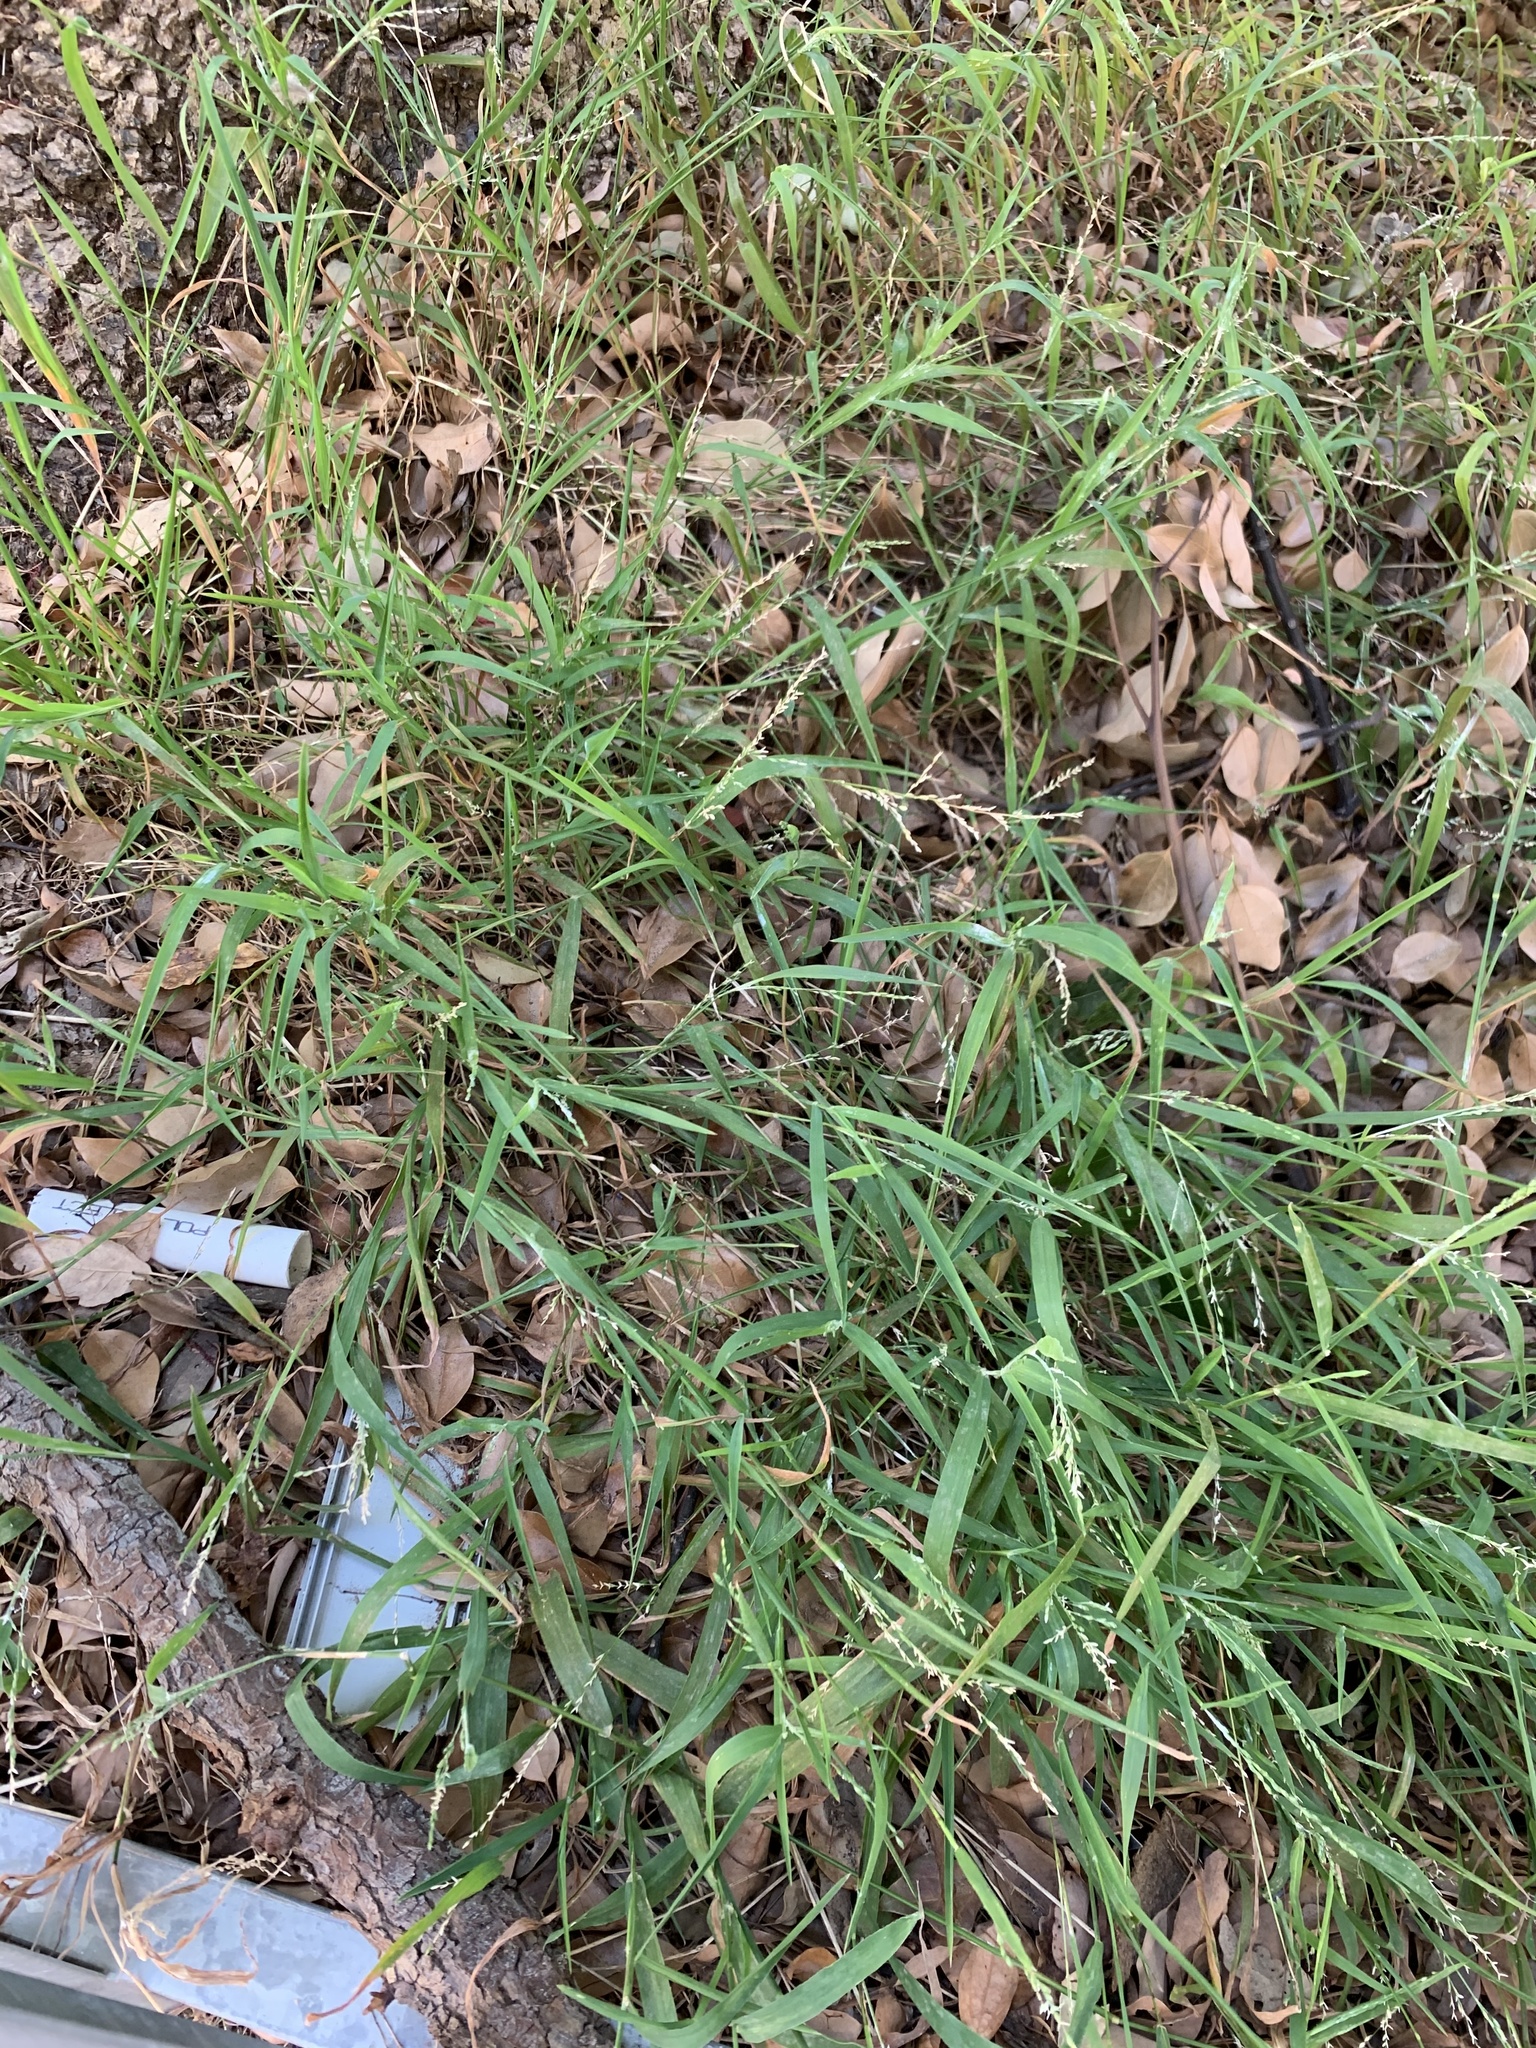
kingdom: Plantae
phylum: Tracheophyta
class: Liliopsida
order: Poales
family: Poaceae
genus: Ehrharta
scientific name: Ehrharta erecta
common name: Panic veldtgrass
